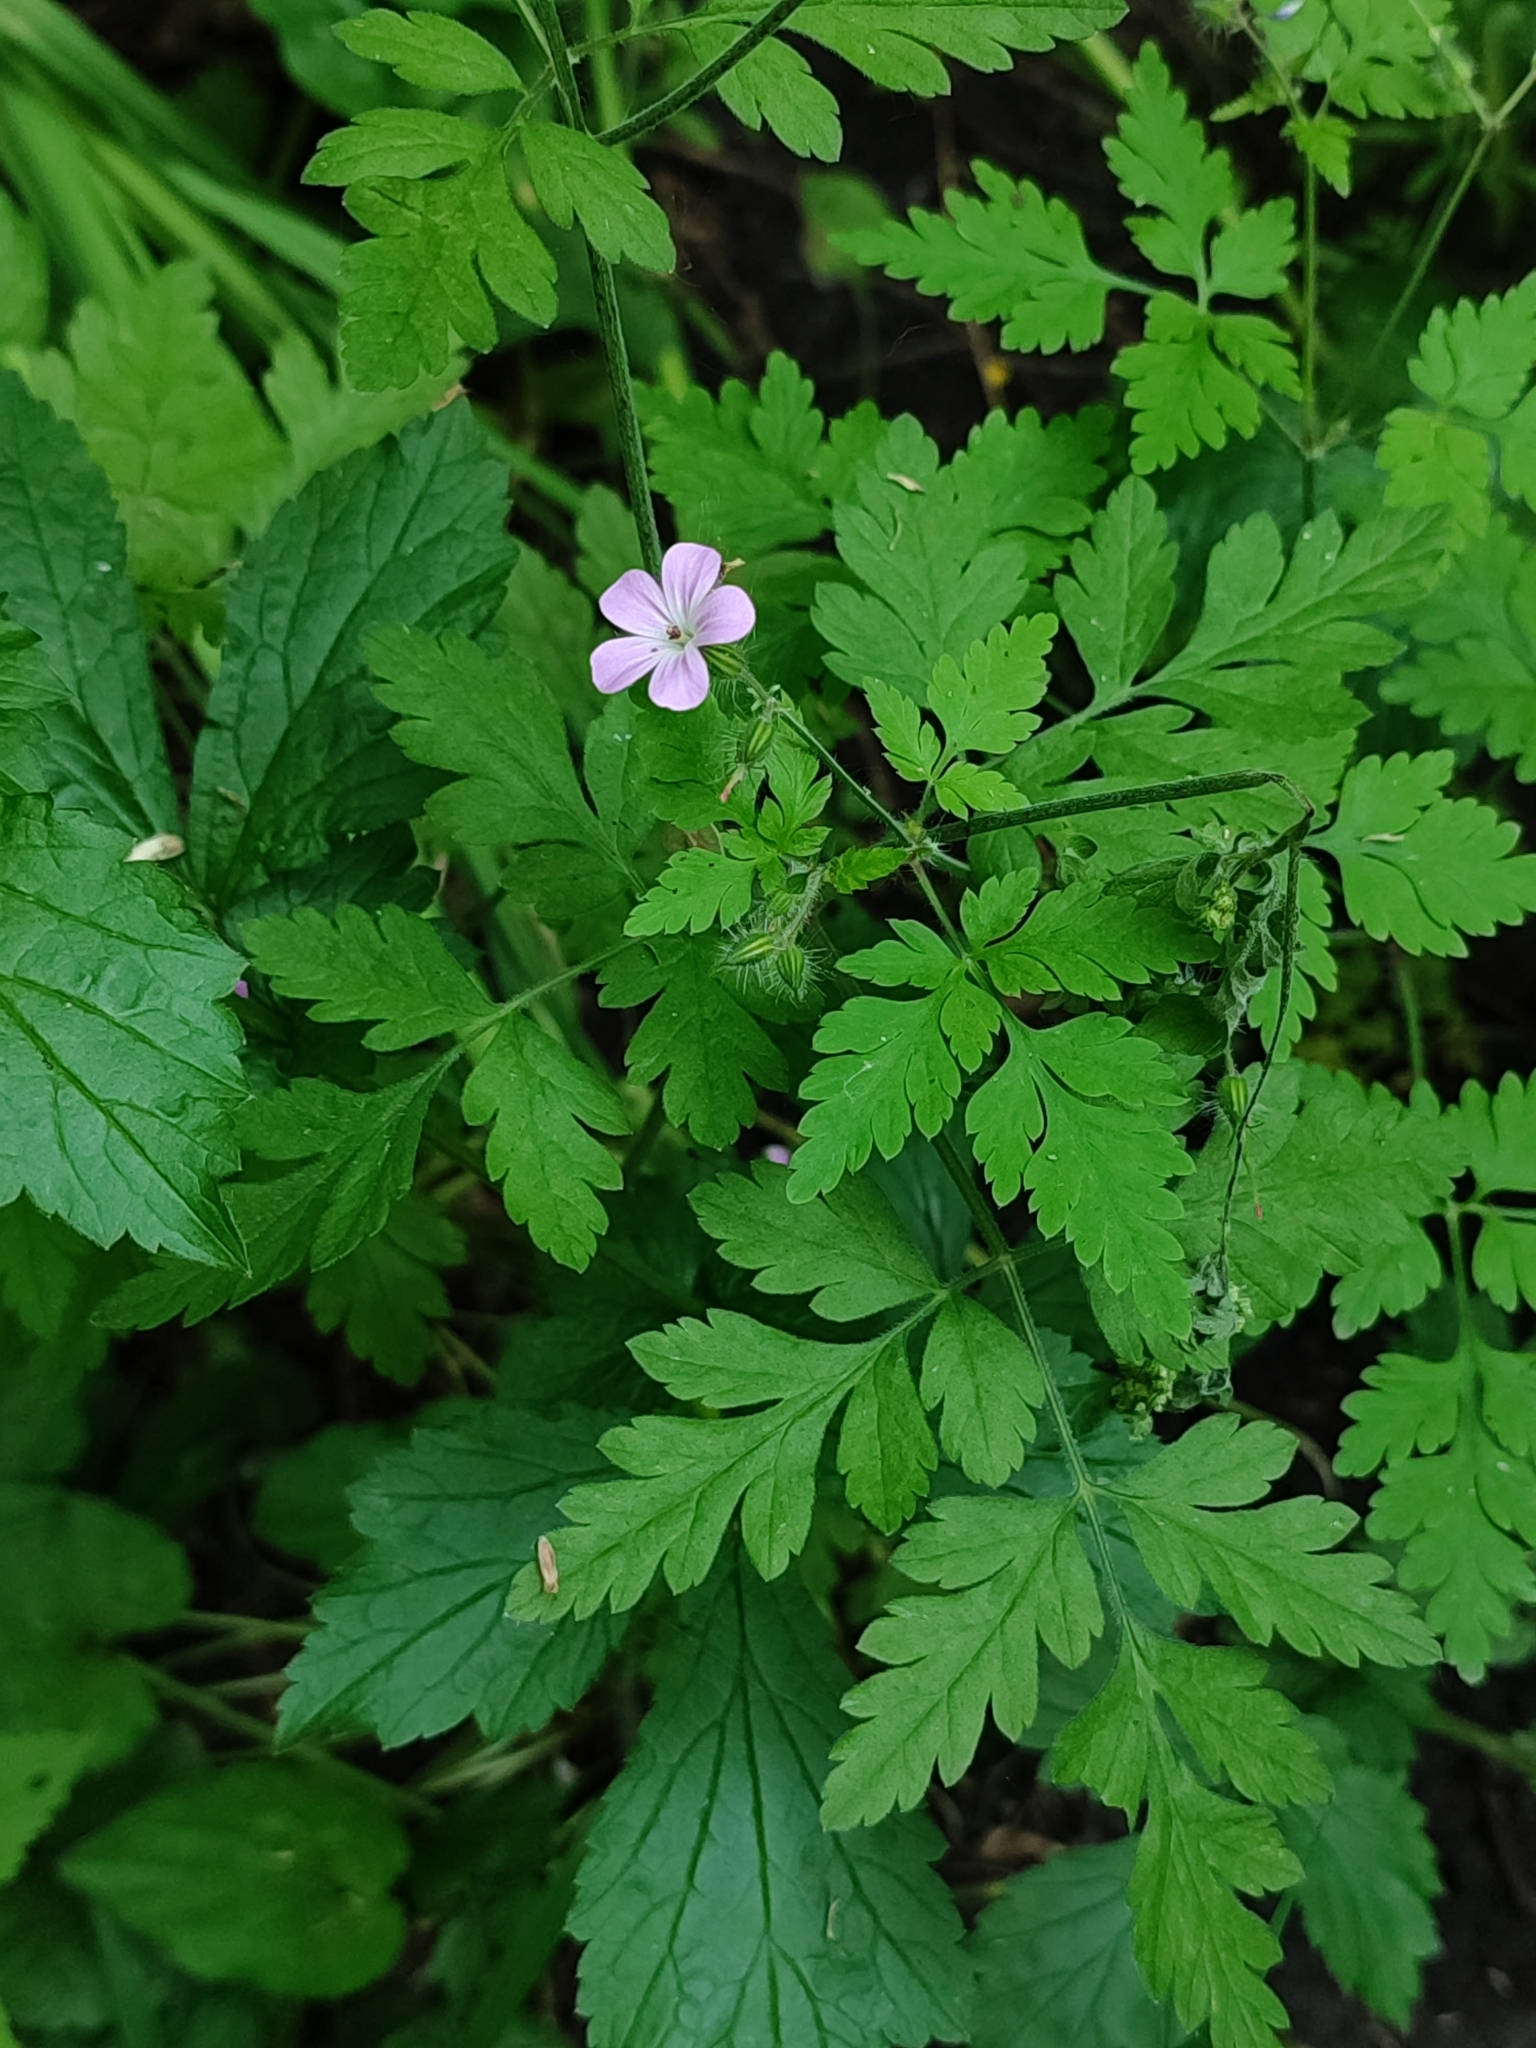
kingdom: Plantae
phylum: Tracheophyta
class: Magnoliopsida
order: Geraniales
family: Geraniaceae
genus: Geranium
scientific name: Geranium robertianum
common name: Herb-robert
